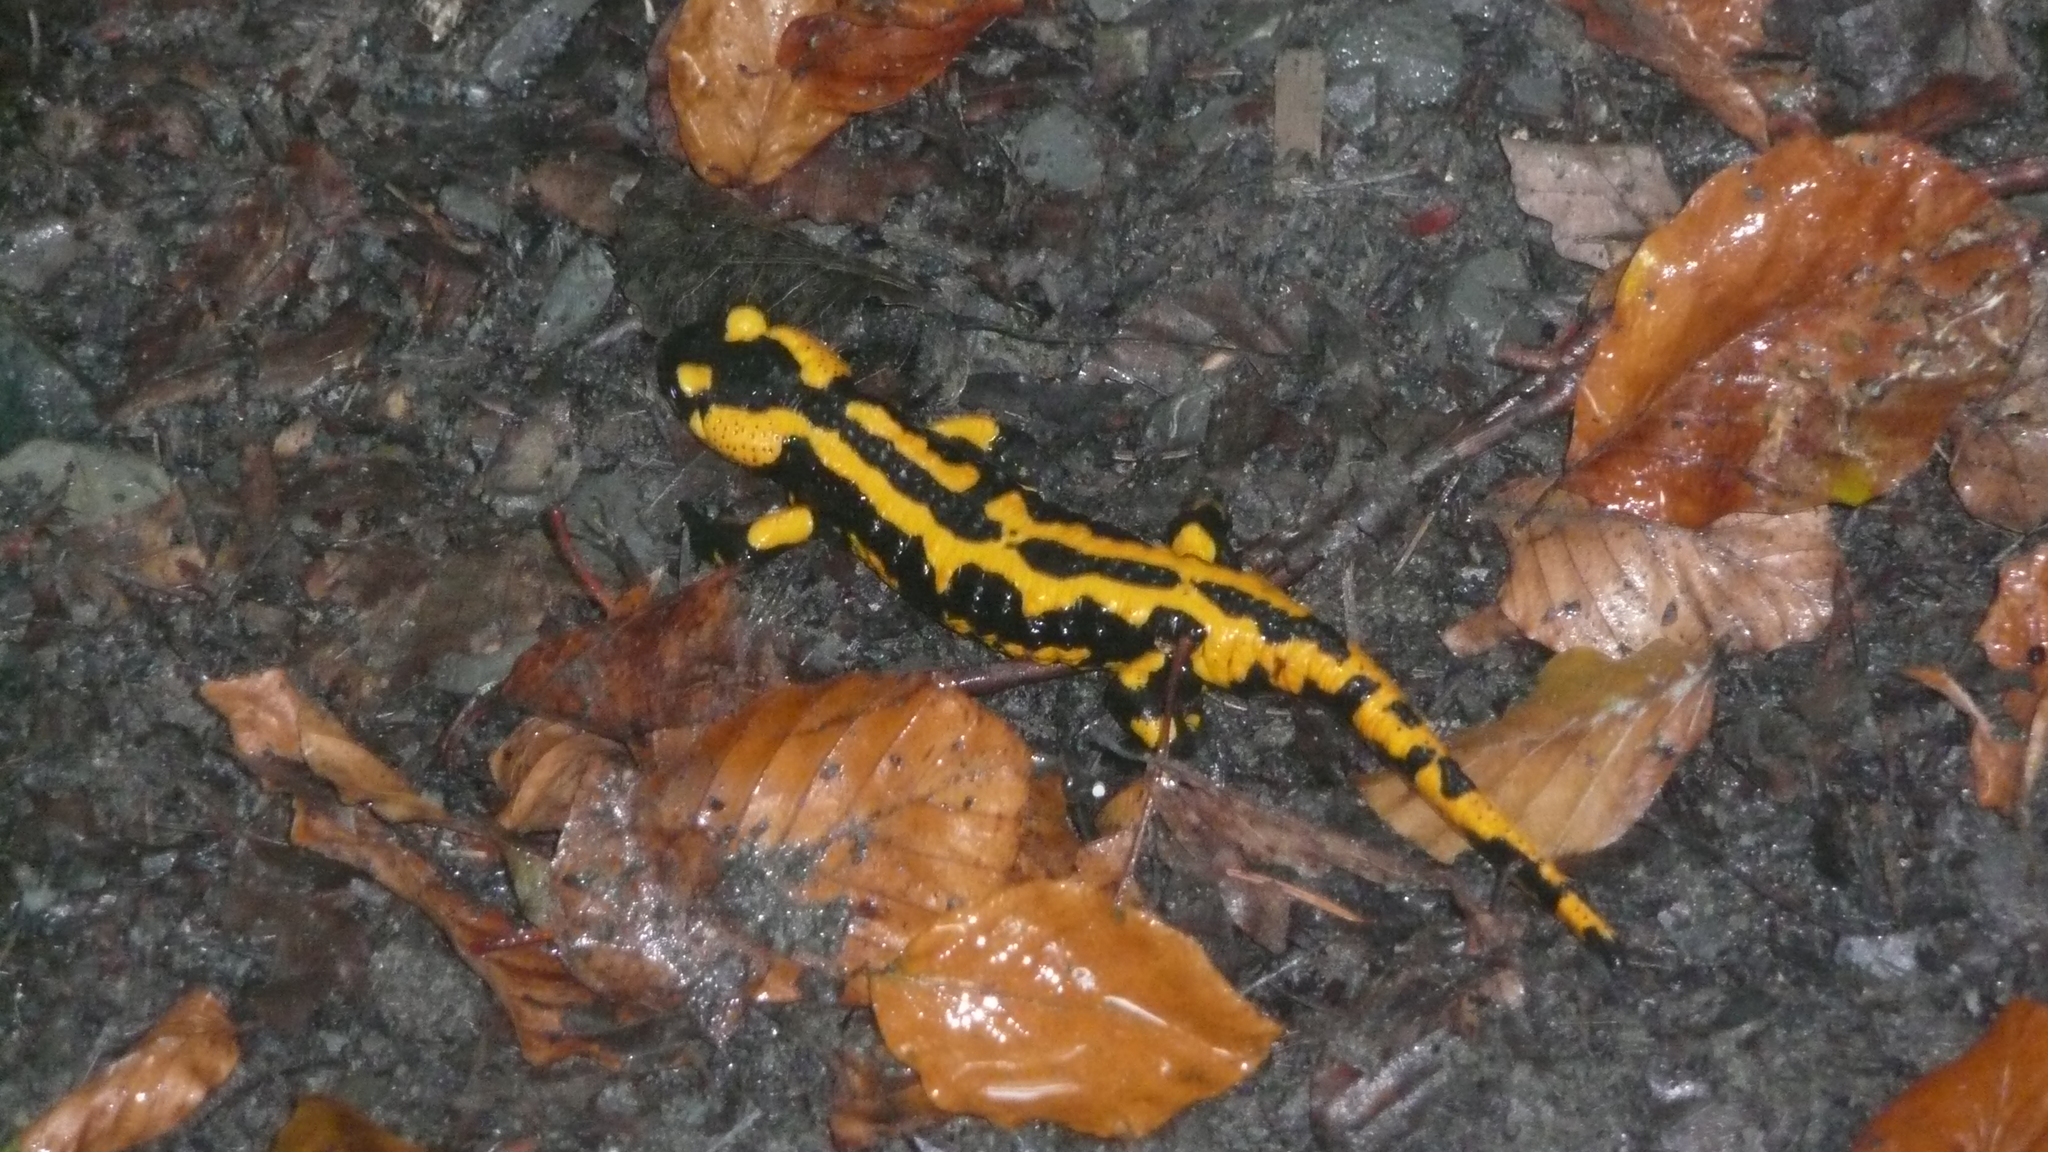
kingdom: Animalia
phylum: Chordata
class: Amphibia
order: Caudata
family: Salamandridae
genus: Salamandra
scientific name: Salamandra salamandra
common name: Fire salamander
